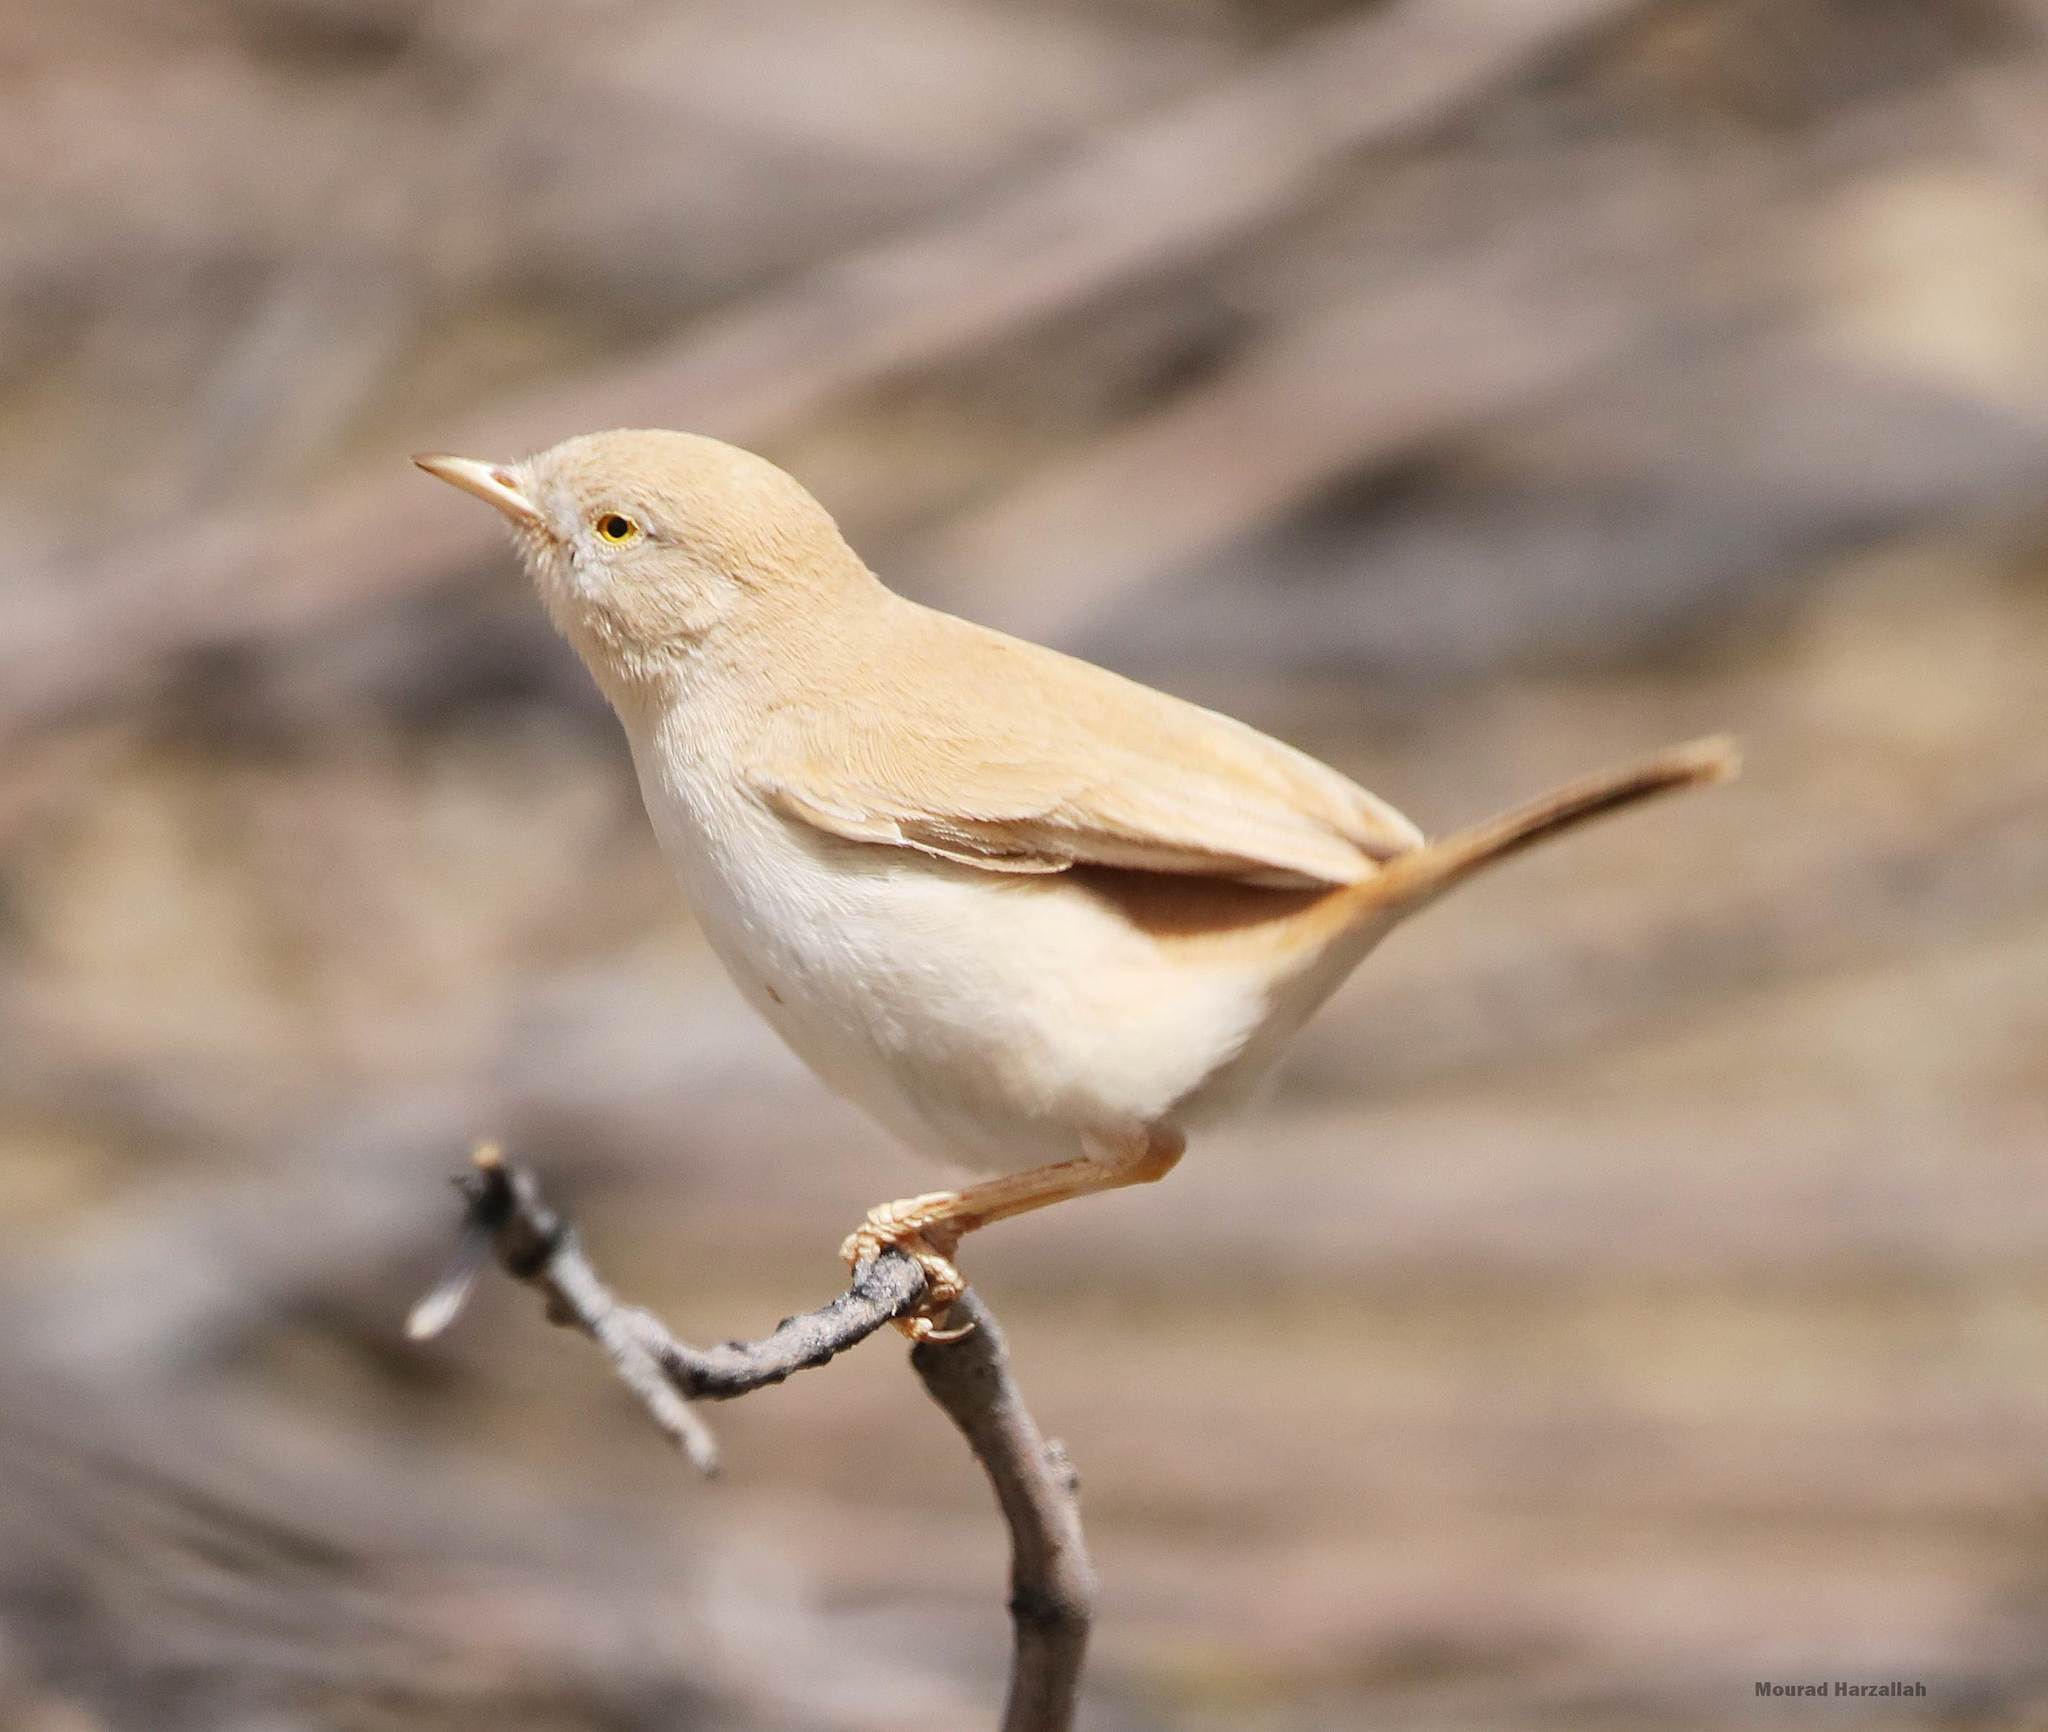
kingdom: Animalia
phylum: Chordata
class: Aves
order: Passeriformes
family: Sylviidae
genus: Sylvia
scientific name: Sylvia deserti
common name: African desert warbler
